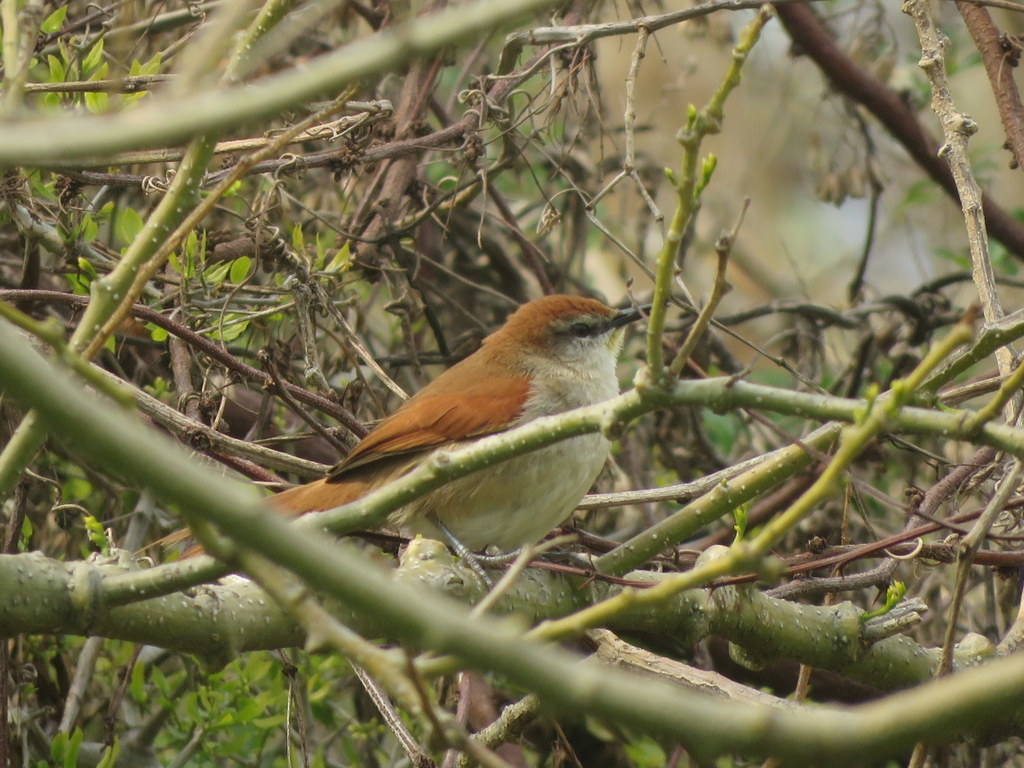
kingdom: Animalia
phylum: Chordata
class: Aves
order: Passeriformes
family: Furnariidae
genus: Certhiaxis
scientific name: Certhiaxis cinnamomeus
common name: Yellow-chinned spinetail
